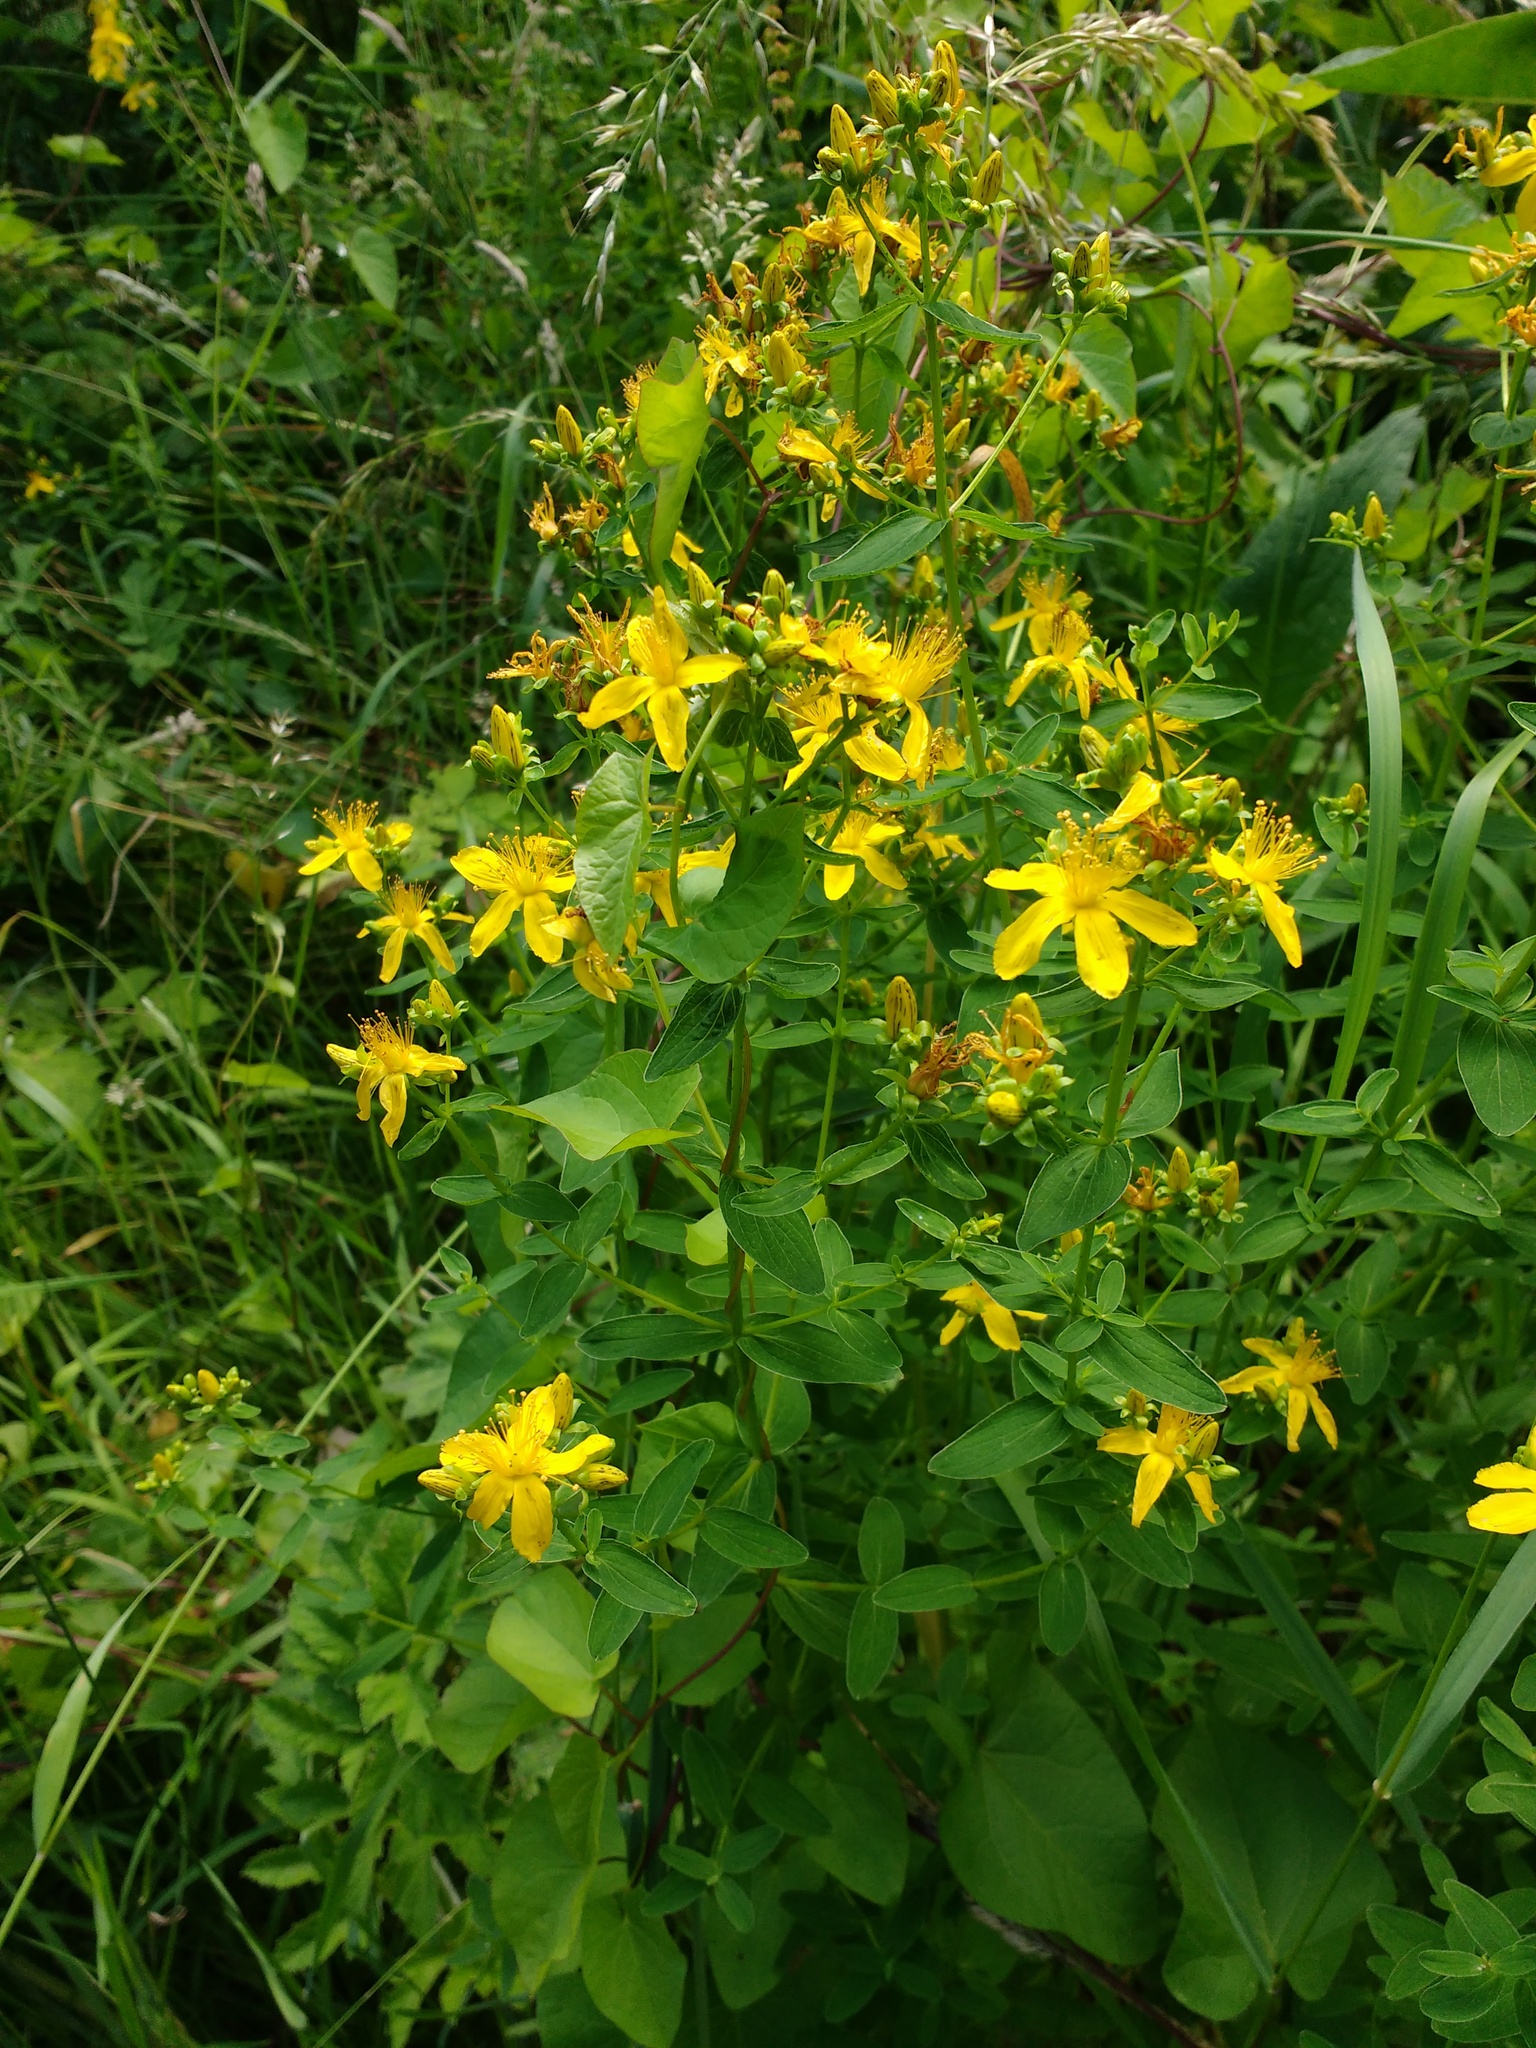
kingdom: Plantae
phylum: Tracheophyta
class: Magnoliopsida
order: Malpighiales
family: Hypericaceae
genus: Hypericum
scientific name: Hypericum perforatum
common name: Common st. johnswort
